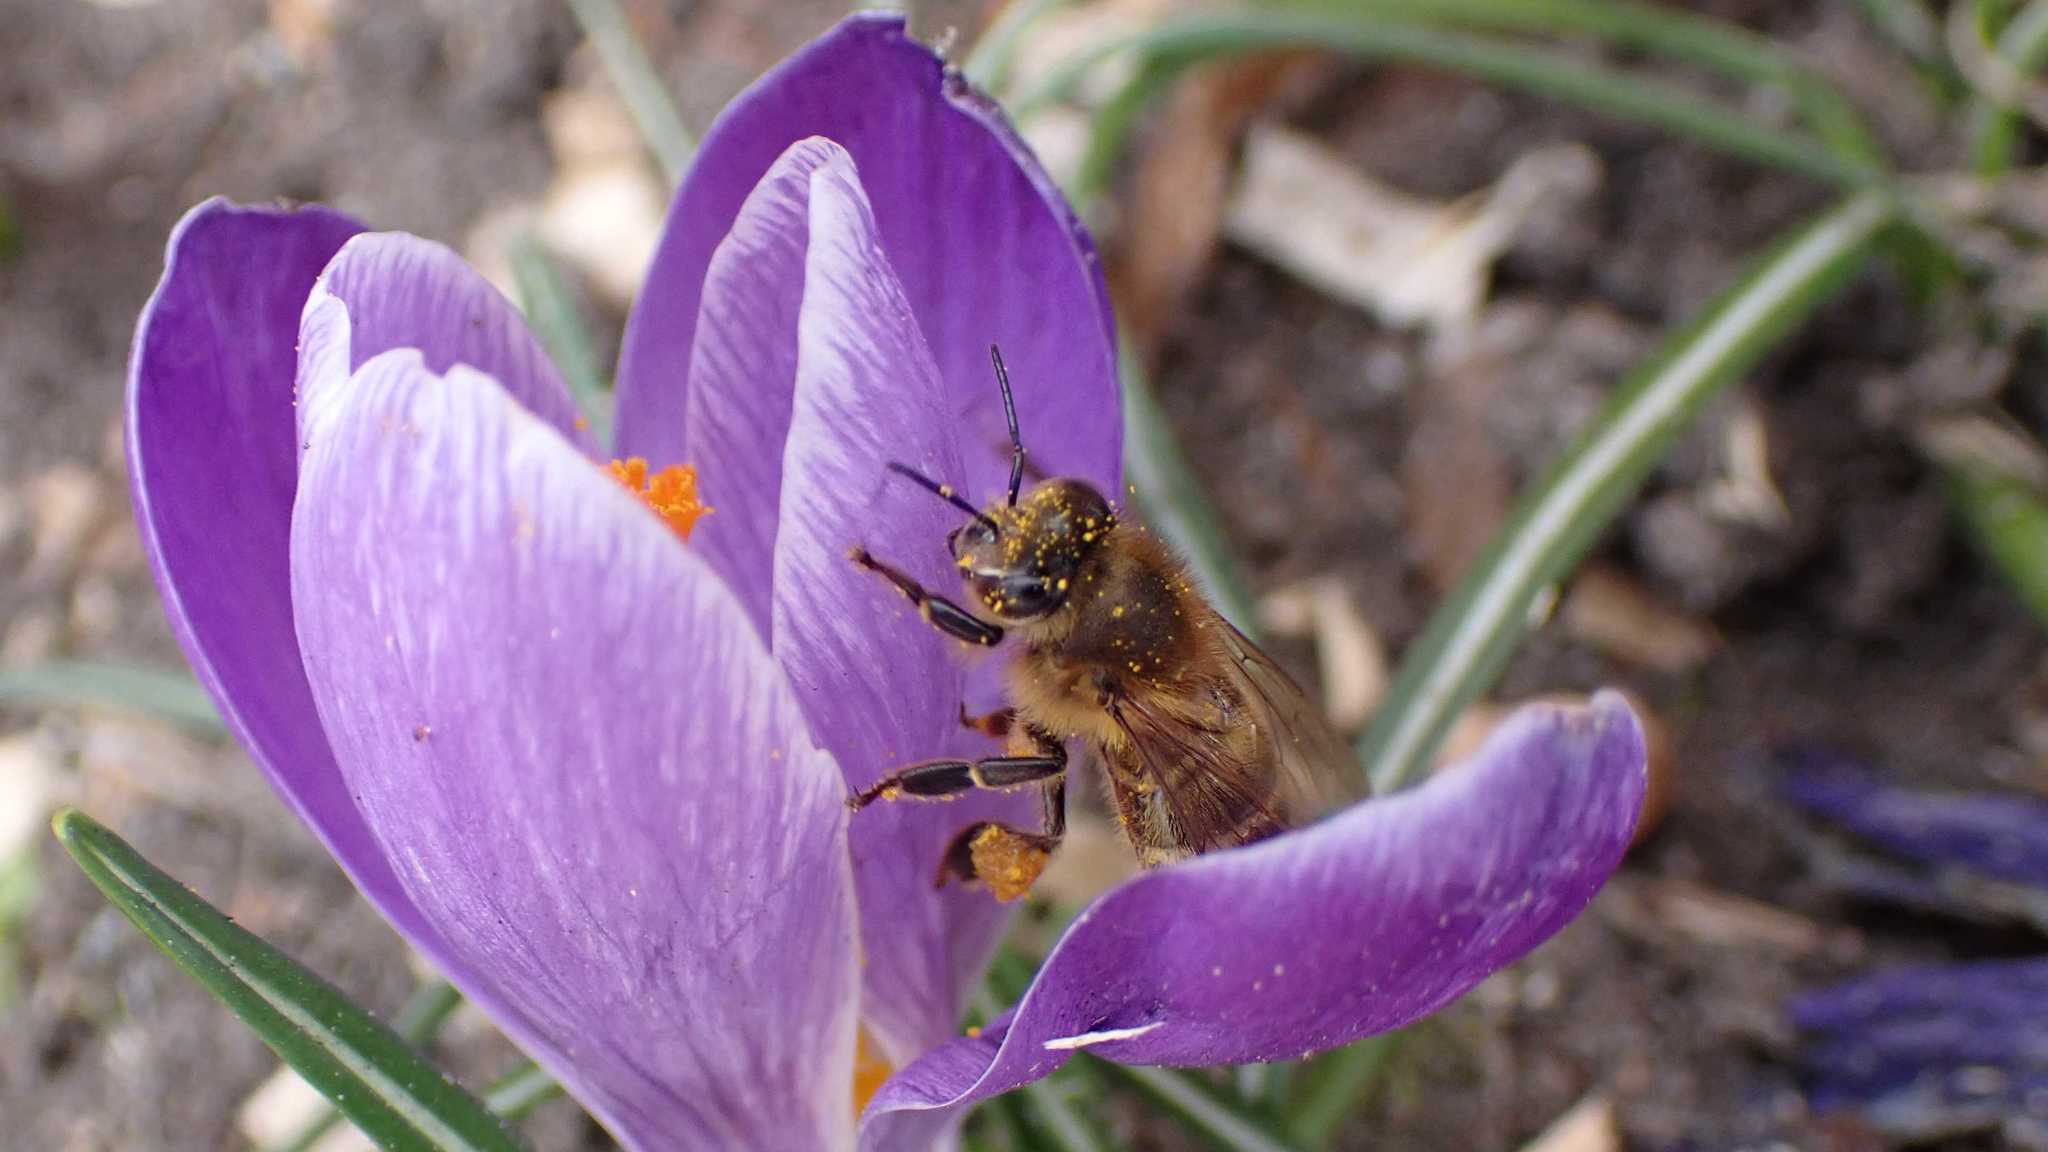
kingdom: Animalia
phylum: Arthropoda
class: Insecta
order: Hymenoptera
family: Apidae
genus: Apis
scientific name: Apis mellifera
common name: Honey bee
